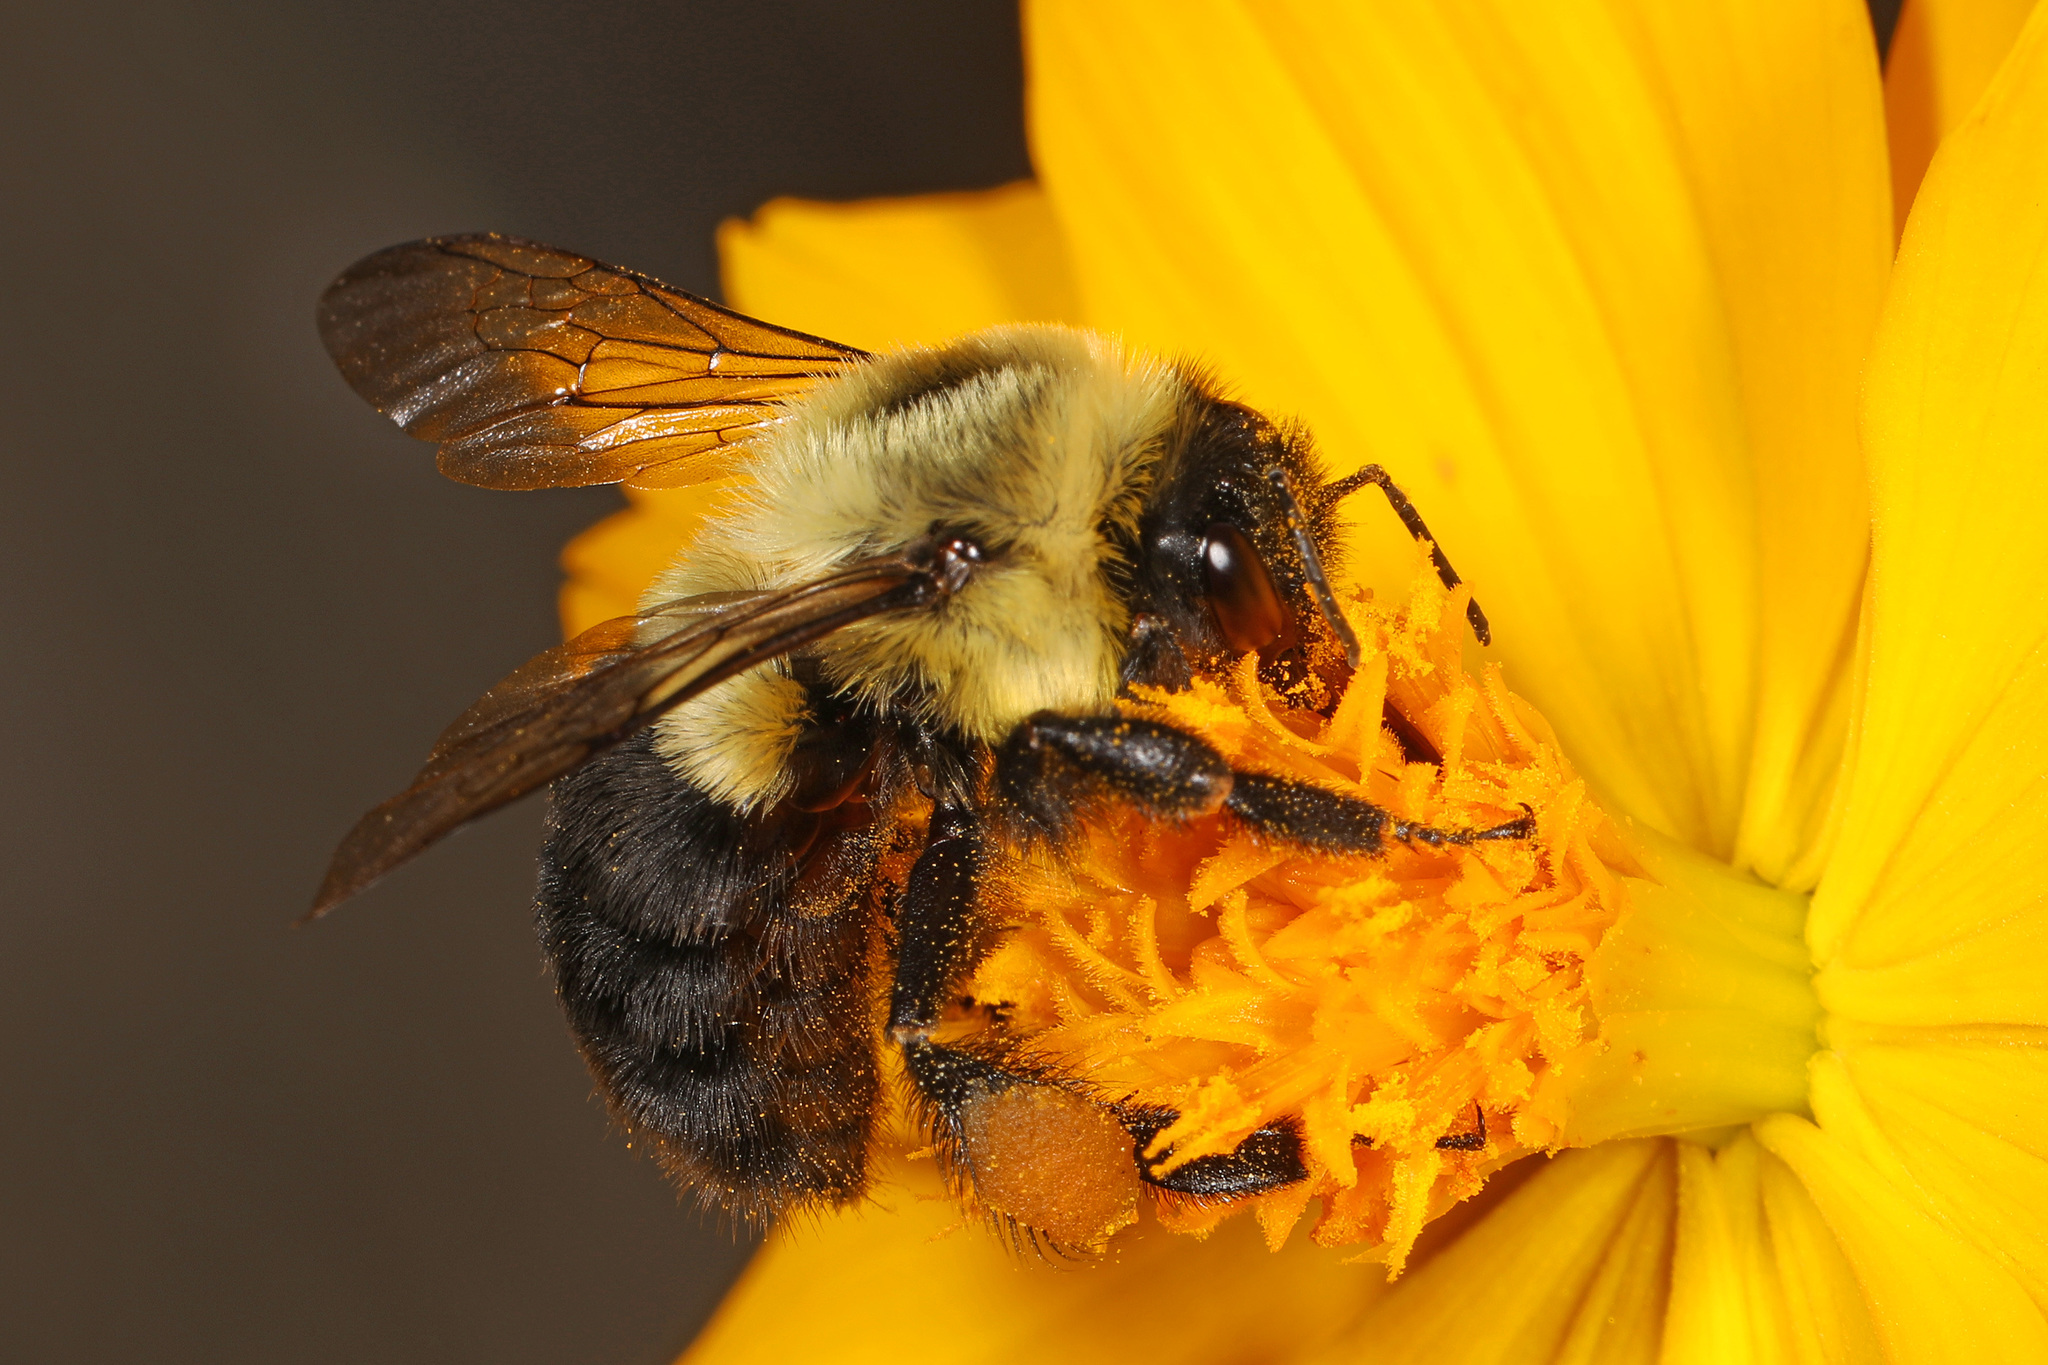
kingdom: Animalia
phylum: Arthropoda
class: Insecta
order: Hymenoptera
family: Apidae
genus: Bombus
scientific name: Bombus impatiens
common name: Common eastern bumble bee
